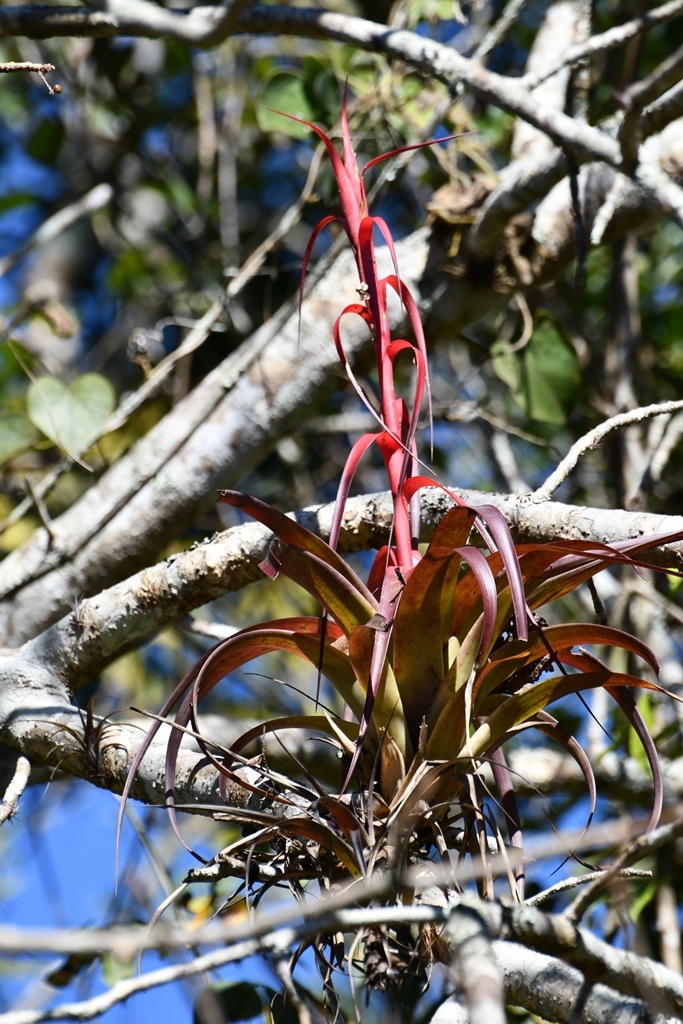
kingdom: Plantae
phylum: Tracheophyta
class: Liliopsida
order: Poales
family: Bromeliaceae
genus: Tillandsia
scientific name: Tillandsia belloensis
